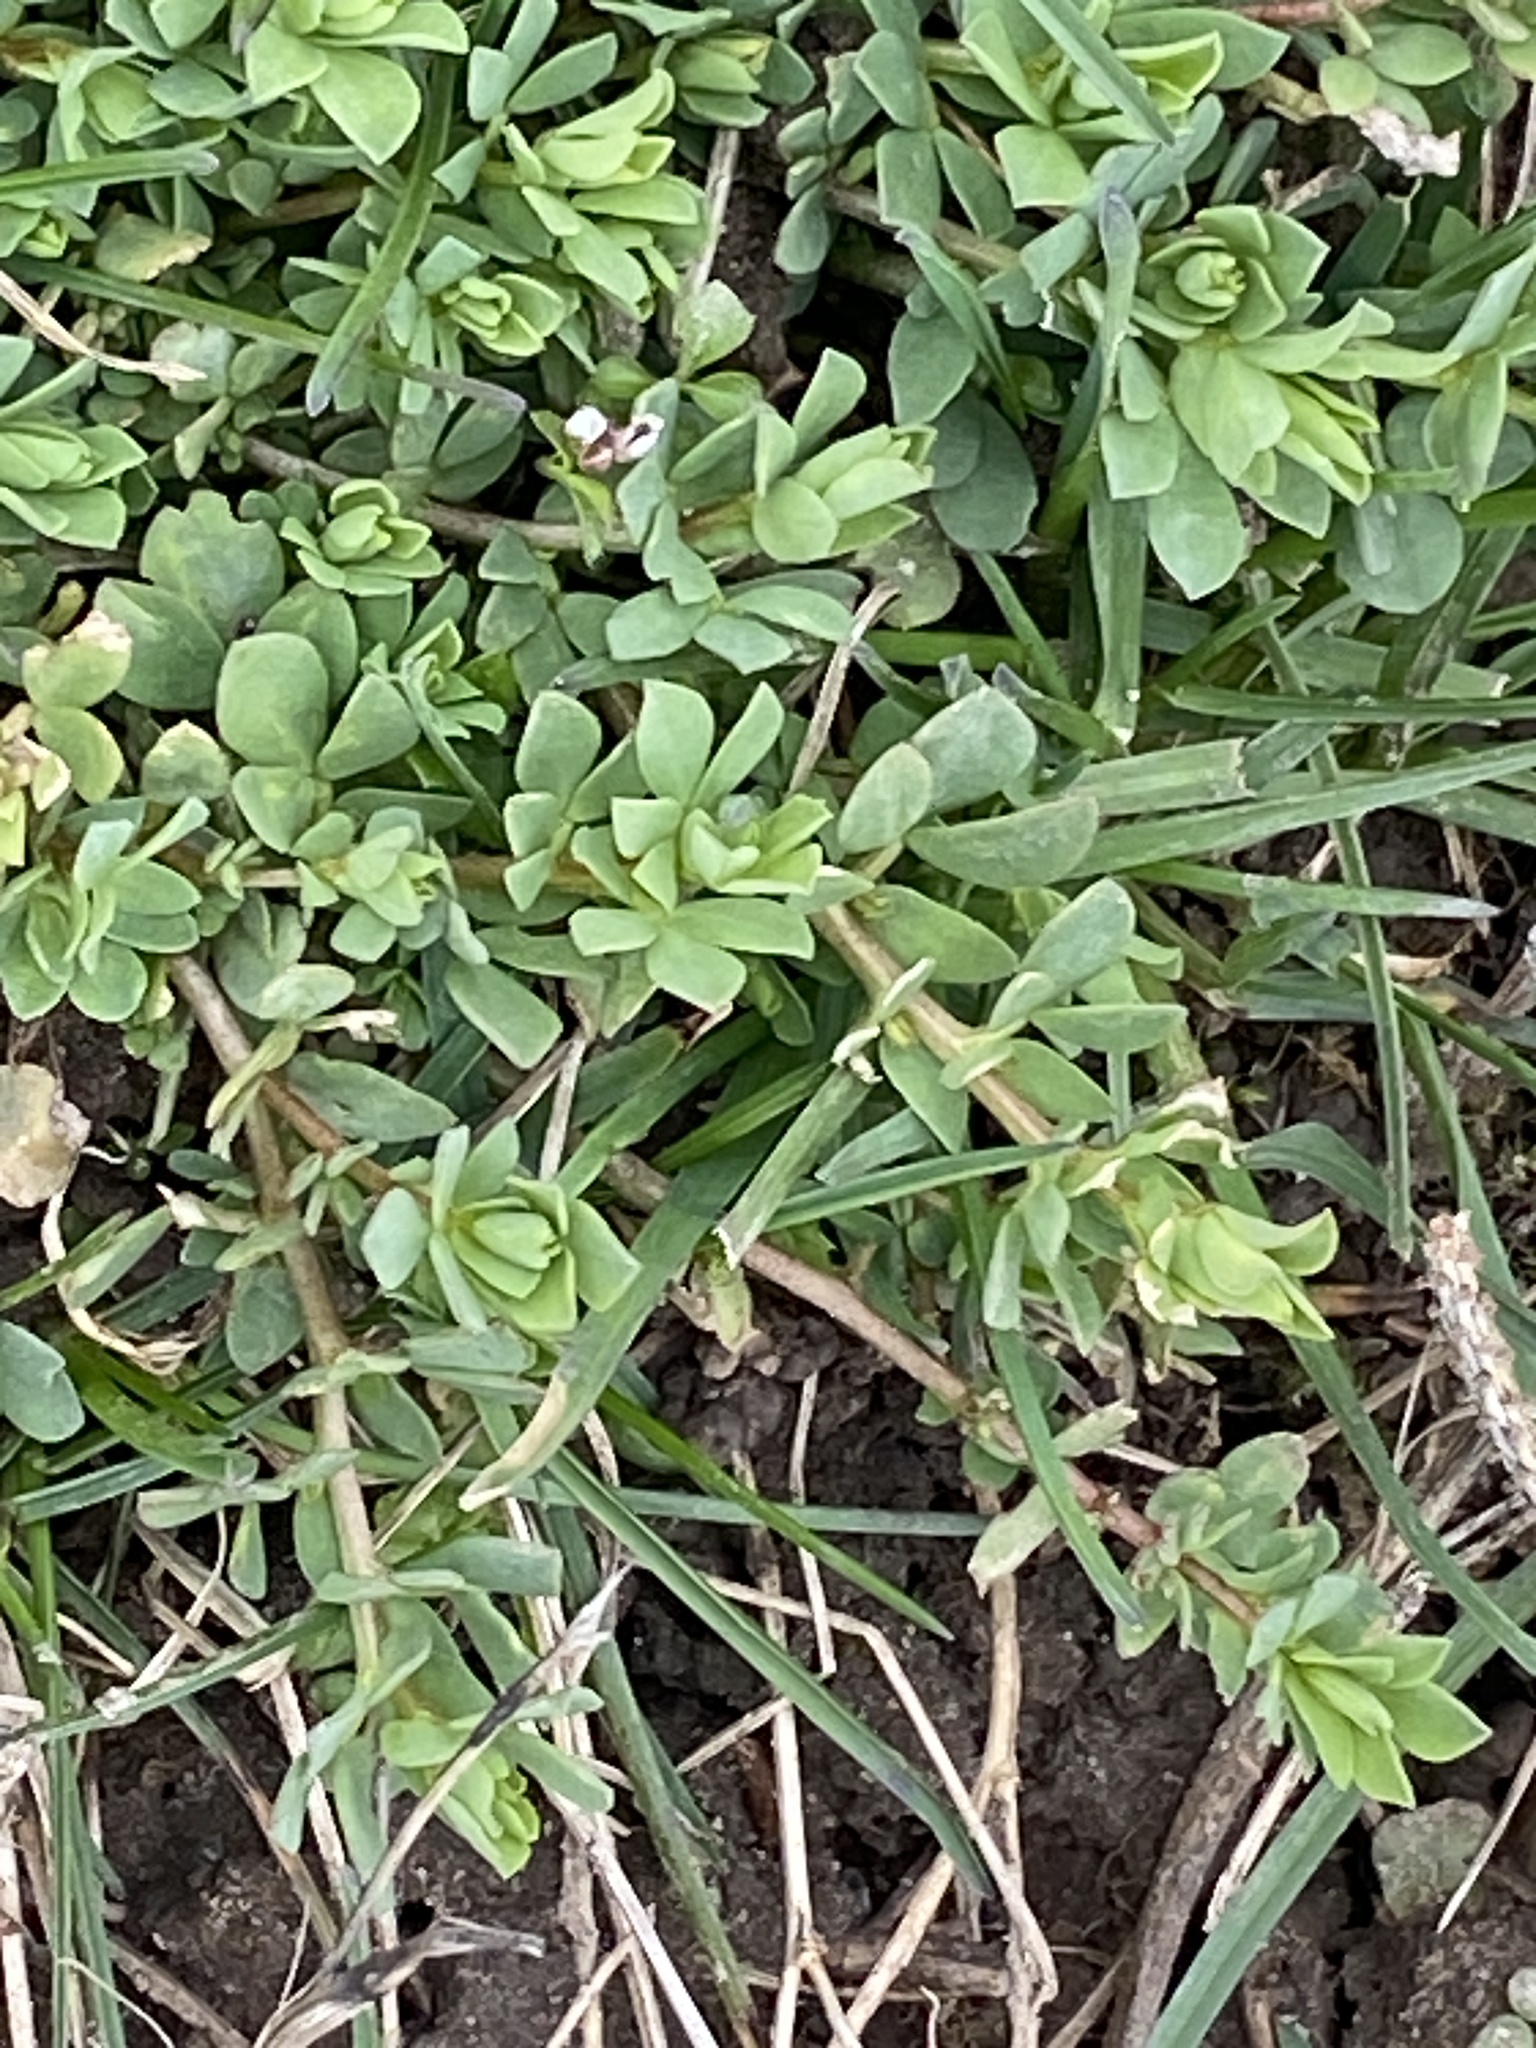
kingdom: Plantae
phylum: Tracheophyta
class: Magnoliopsida
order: Fabales
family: Fabaceae
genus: Lotus
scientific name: Lotus corniculatus
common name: Common bird's-foot-trefoil
